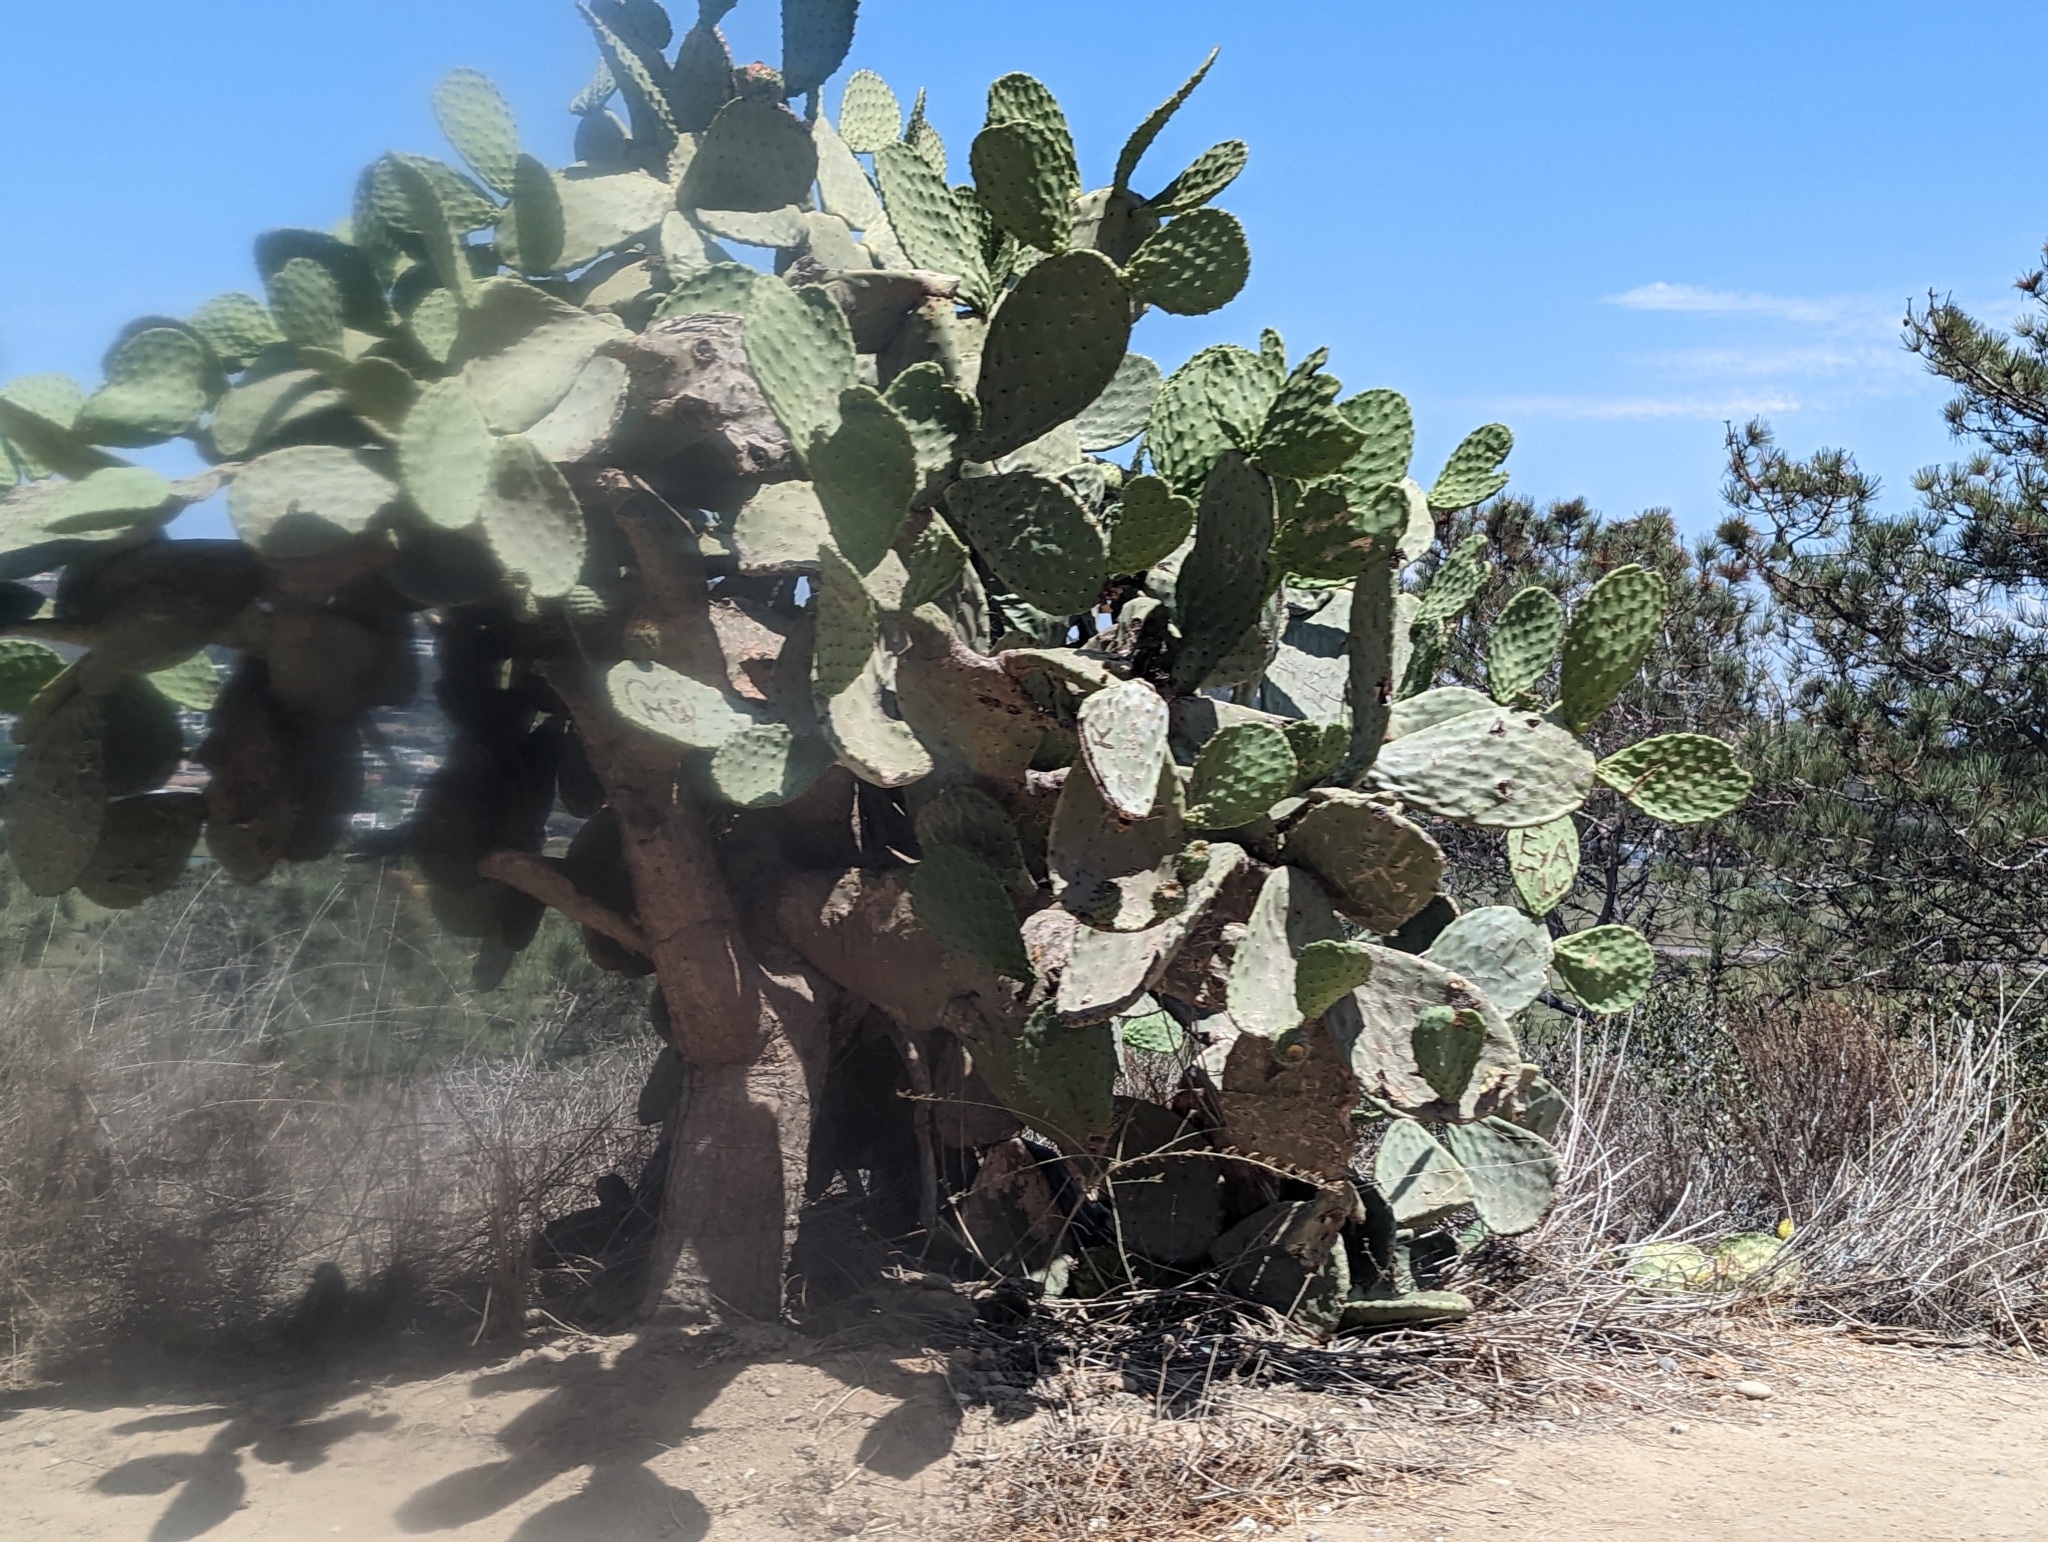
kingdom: Plantae
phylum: Tracheophyta
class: Magnoliopsida
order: Caryophyllales
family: Cactaceae
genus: Opuntia
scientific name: Opuntia ficus-indica
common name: Barbary fig
